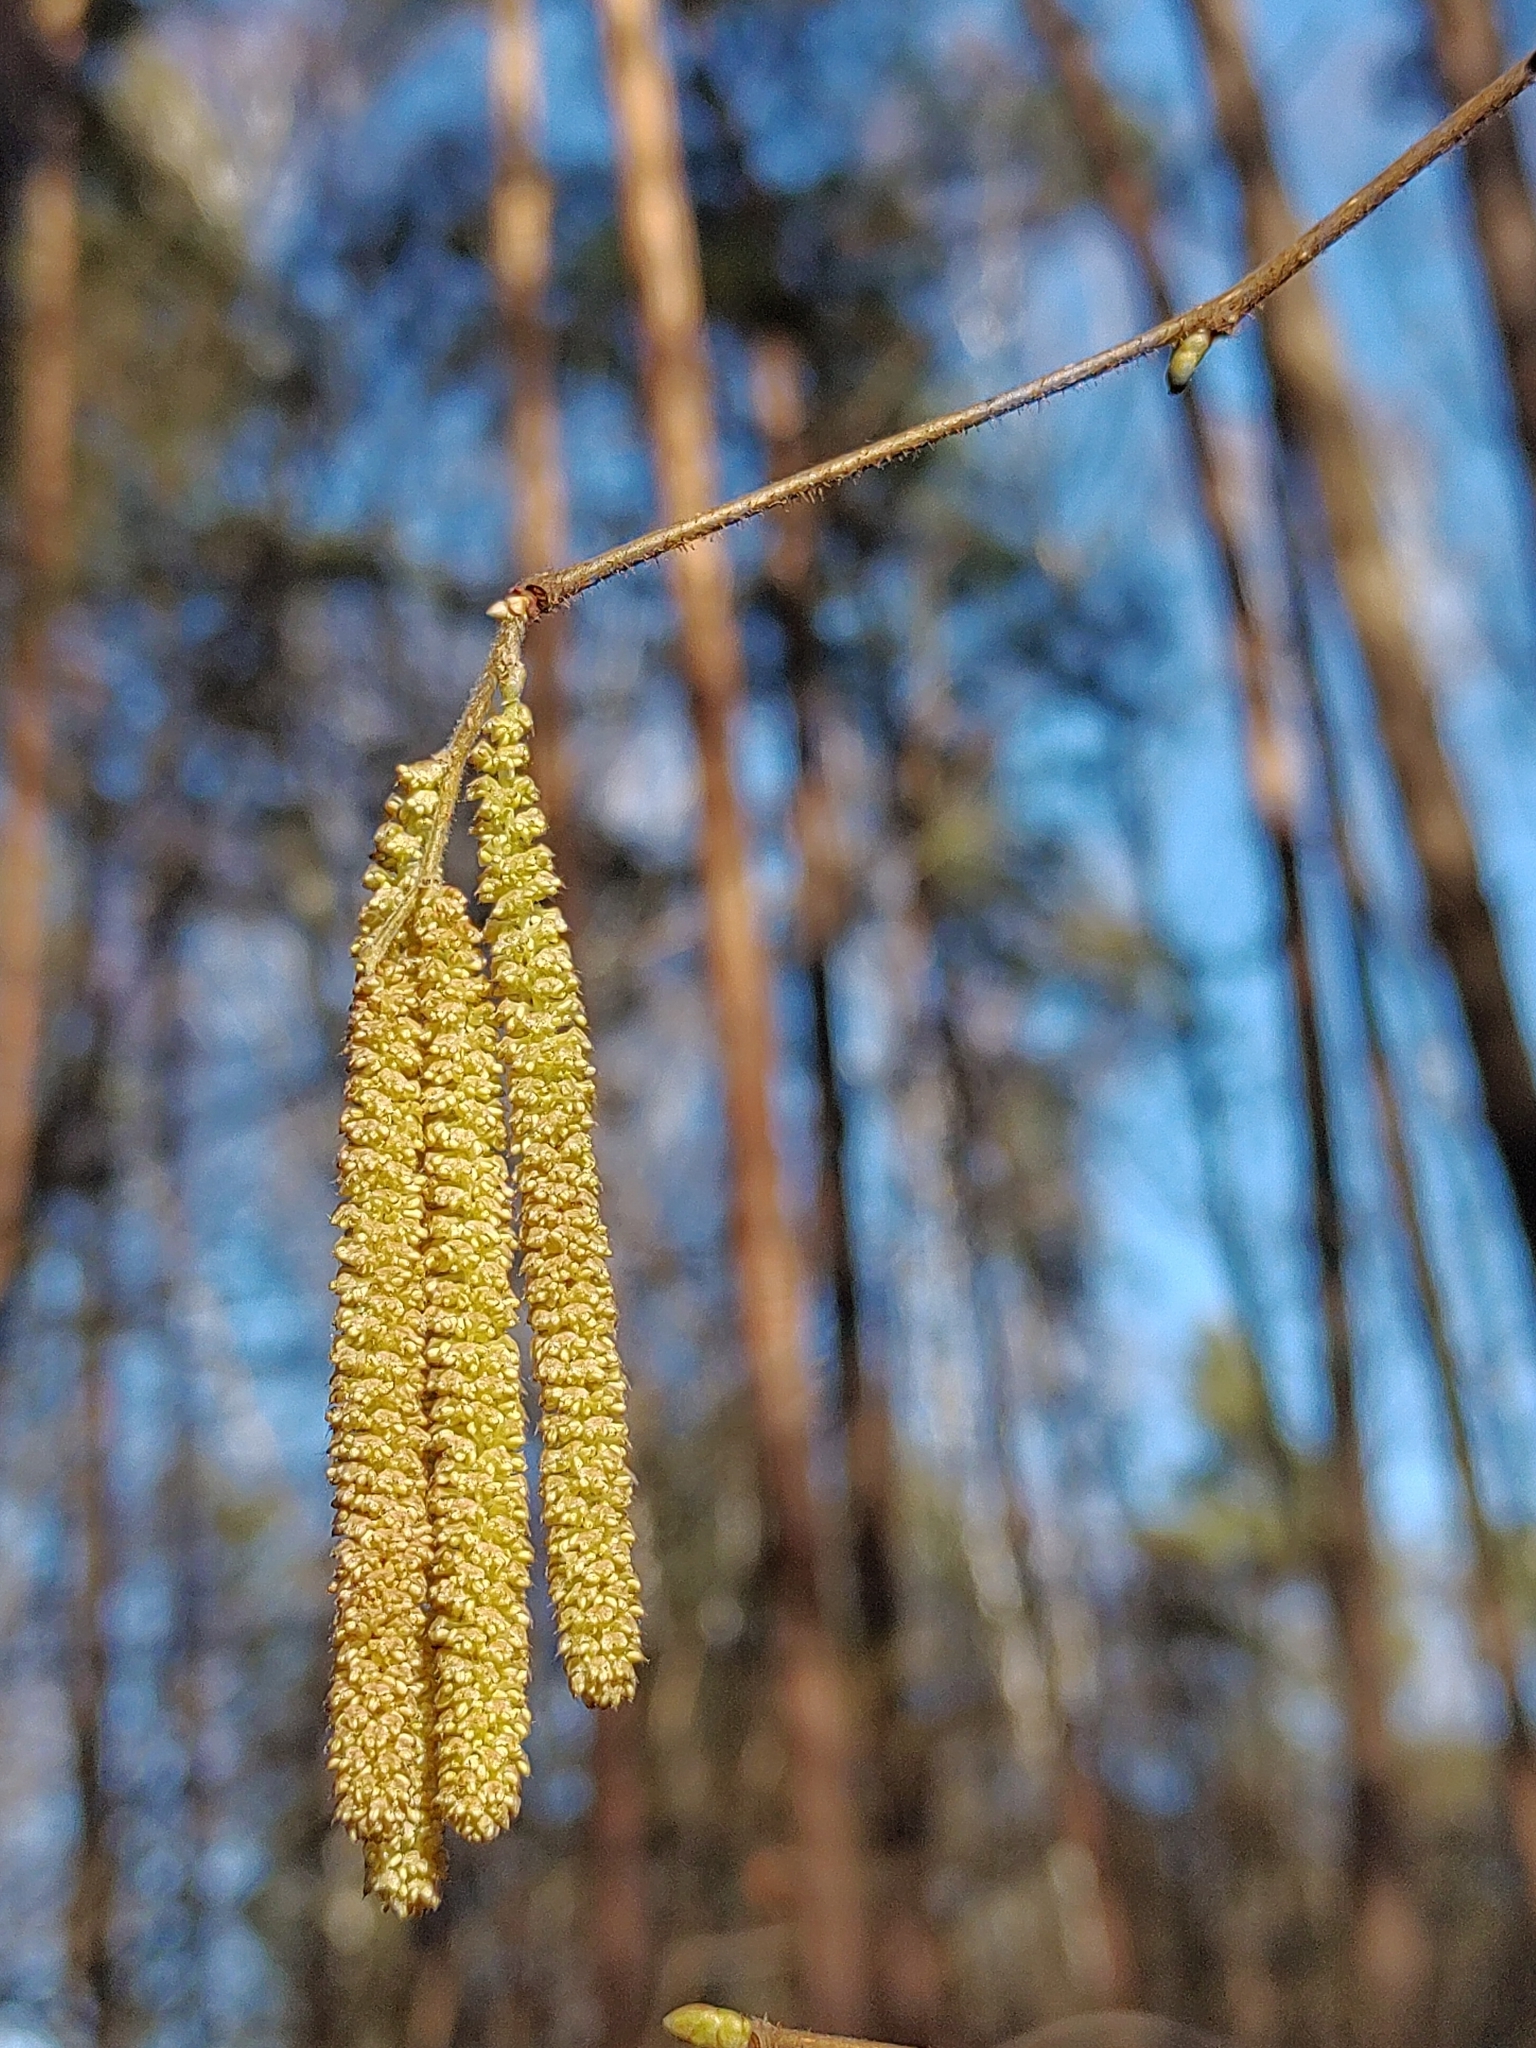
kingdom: Plantae
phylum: Tracheophyta
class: Magnoliopsida
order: Fagales
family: Betulaceae
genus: Corylus
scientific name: Corylus avellana
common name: European hazel
